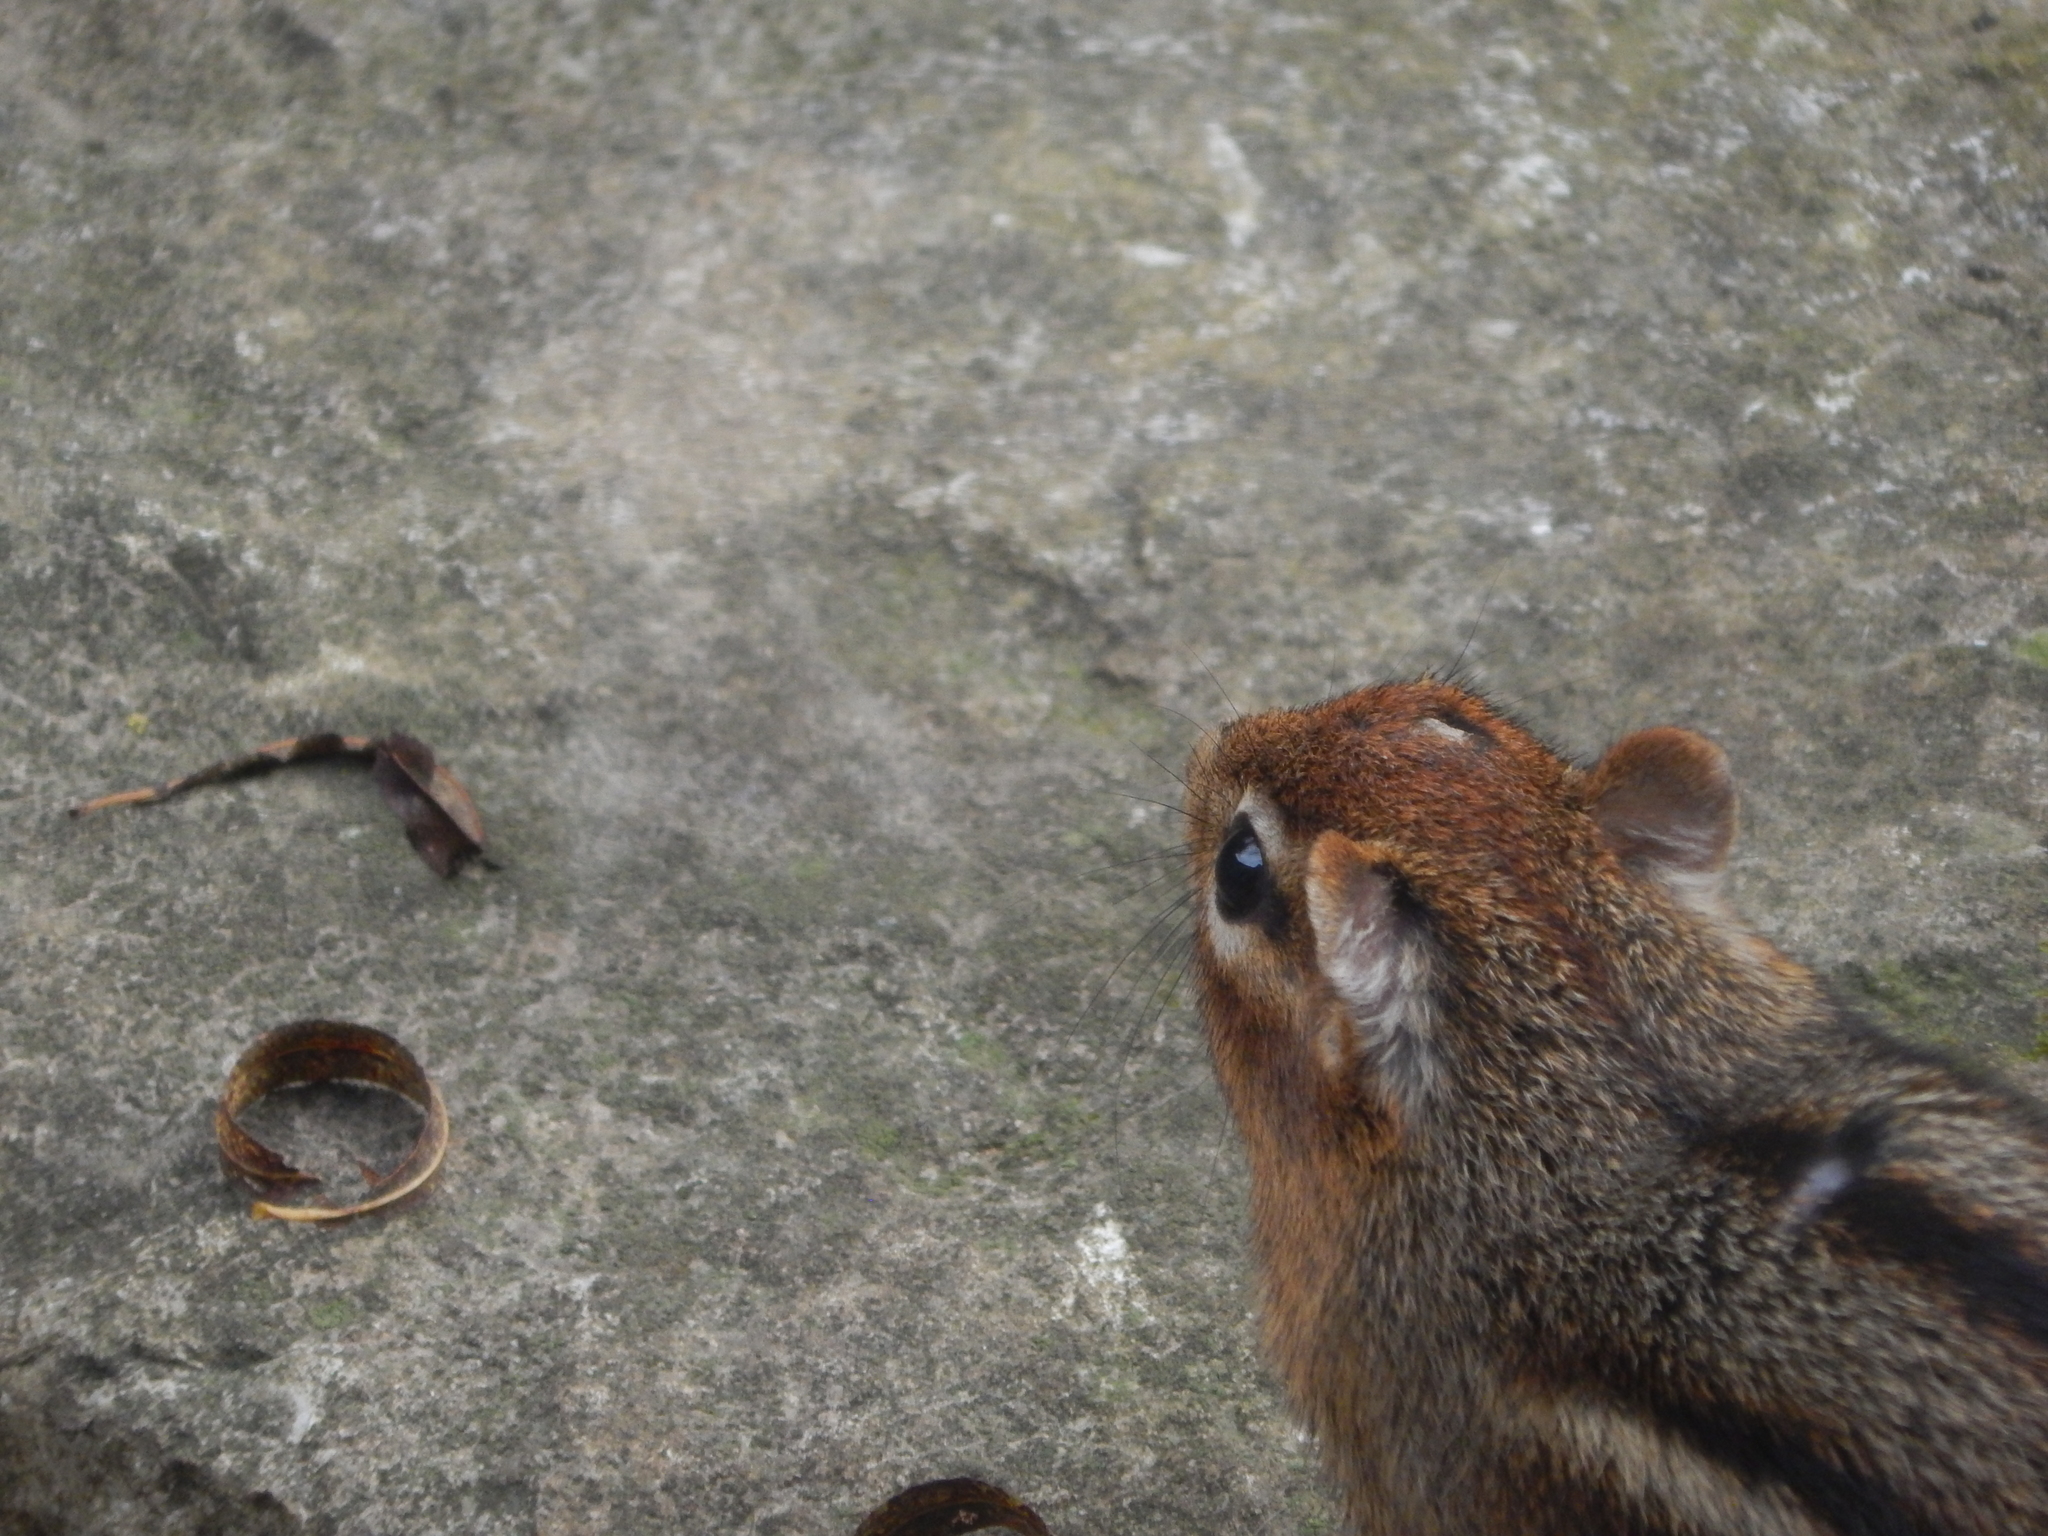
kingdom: Animalia
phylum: Chordata
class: Mammalia
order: Rodentia
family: Sciuridae
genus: Tamias
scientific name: Tamias striatus
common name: Eastern chipmunk
